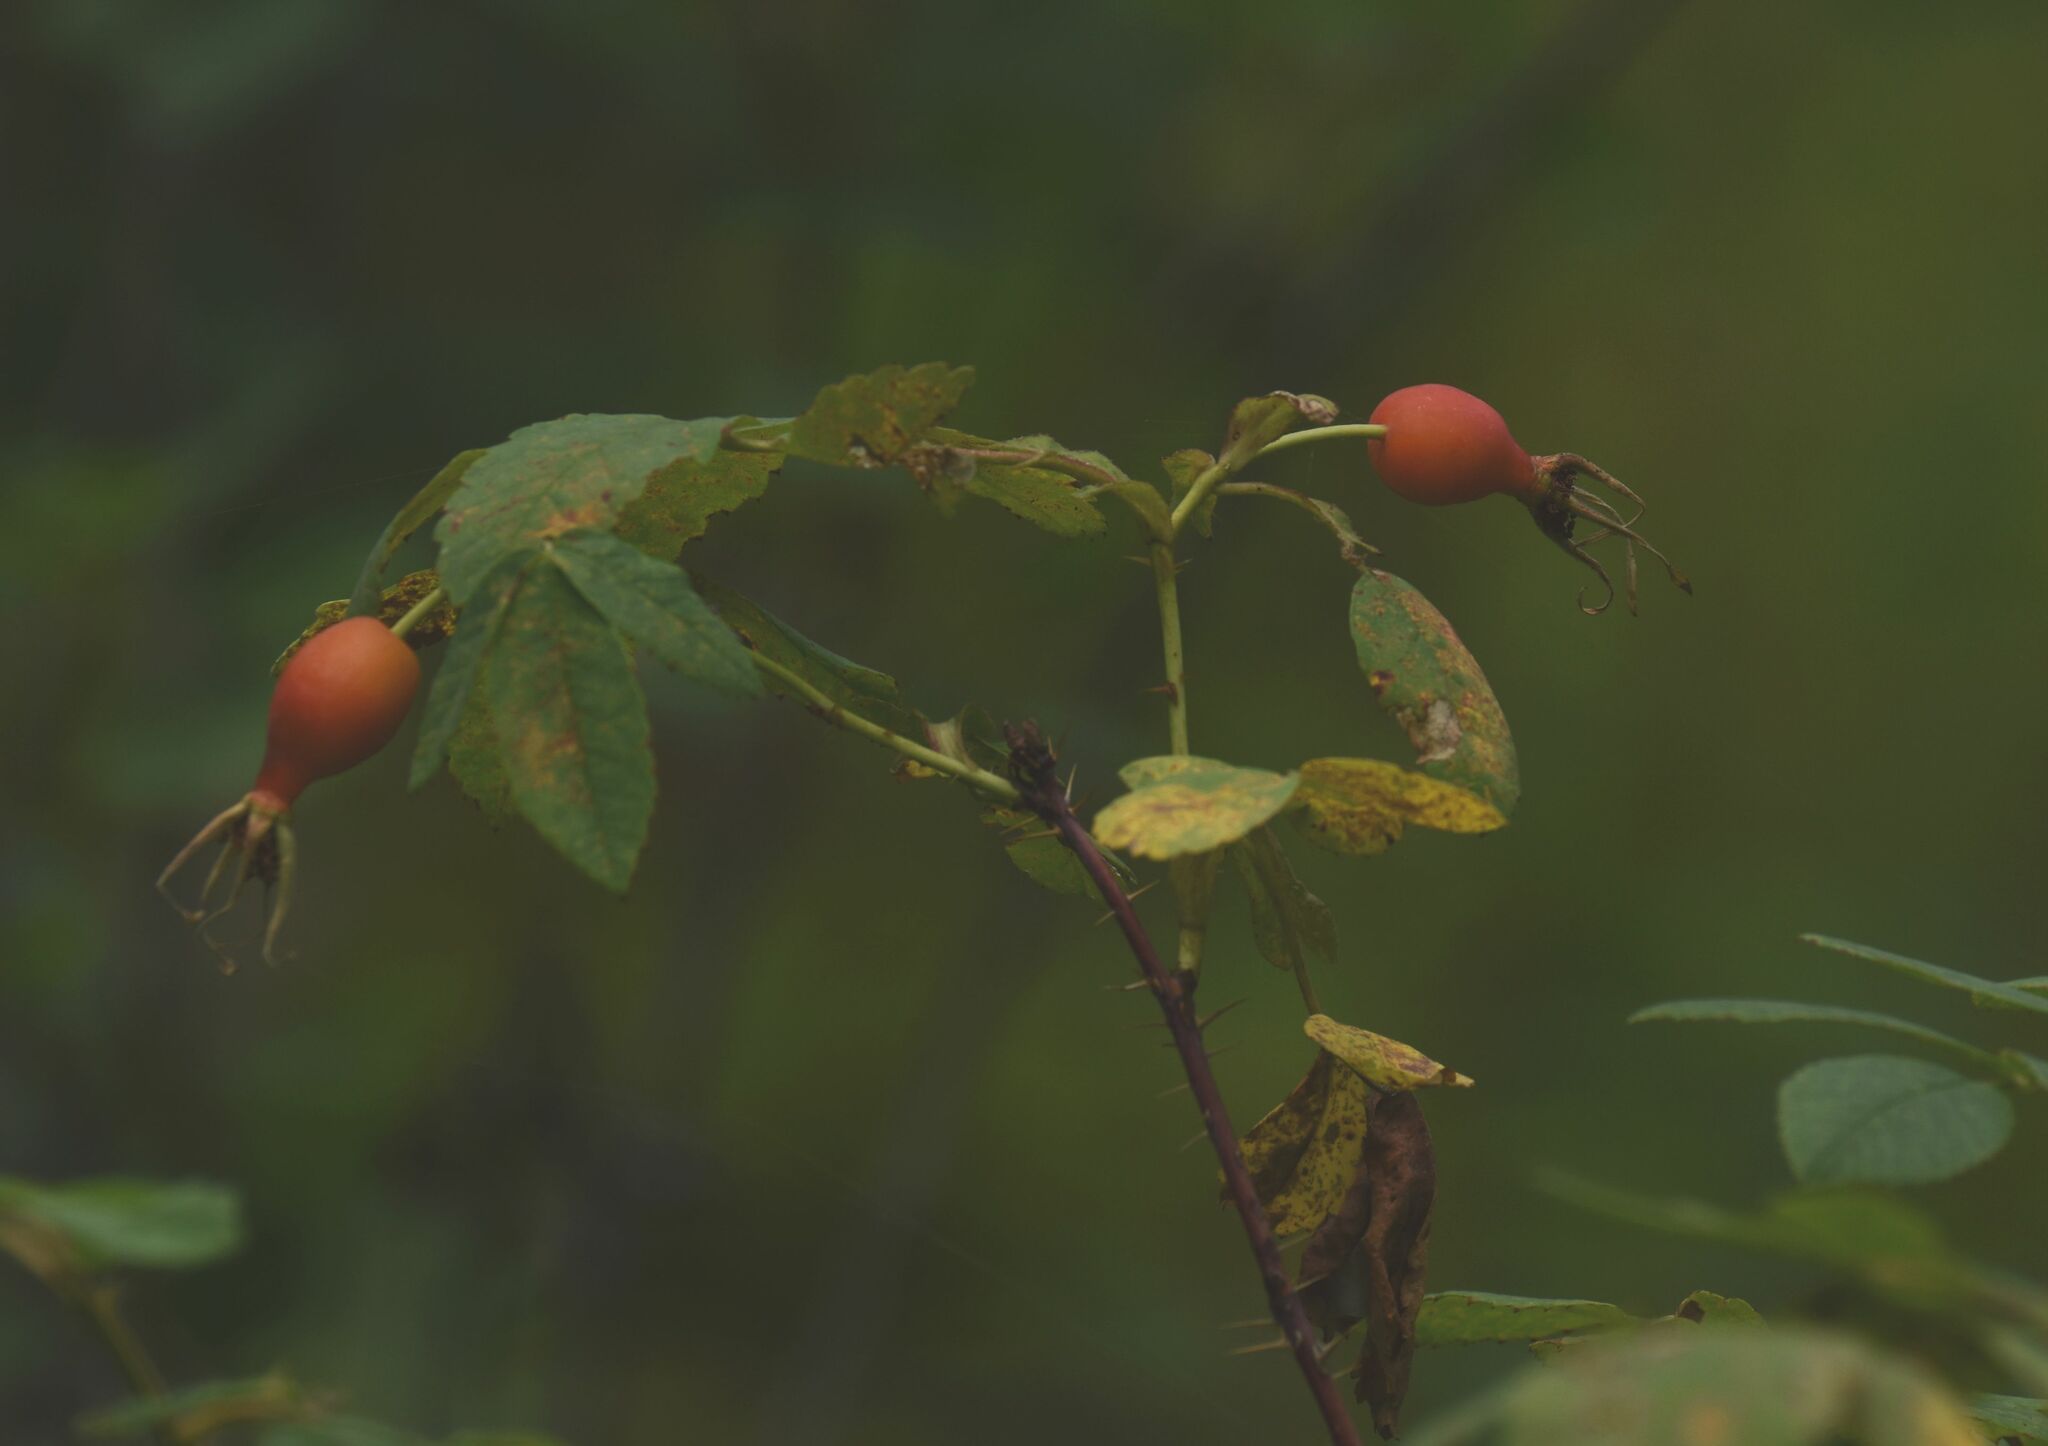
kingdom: Plantae
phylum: Tracheophyta
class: Magnoliopsida
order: Rosales
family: Rosaceae
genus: Rosa
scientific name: Rosa acicularis
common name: Prickly rose
